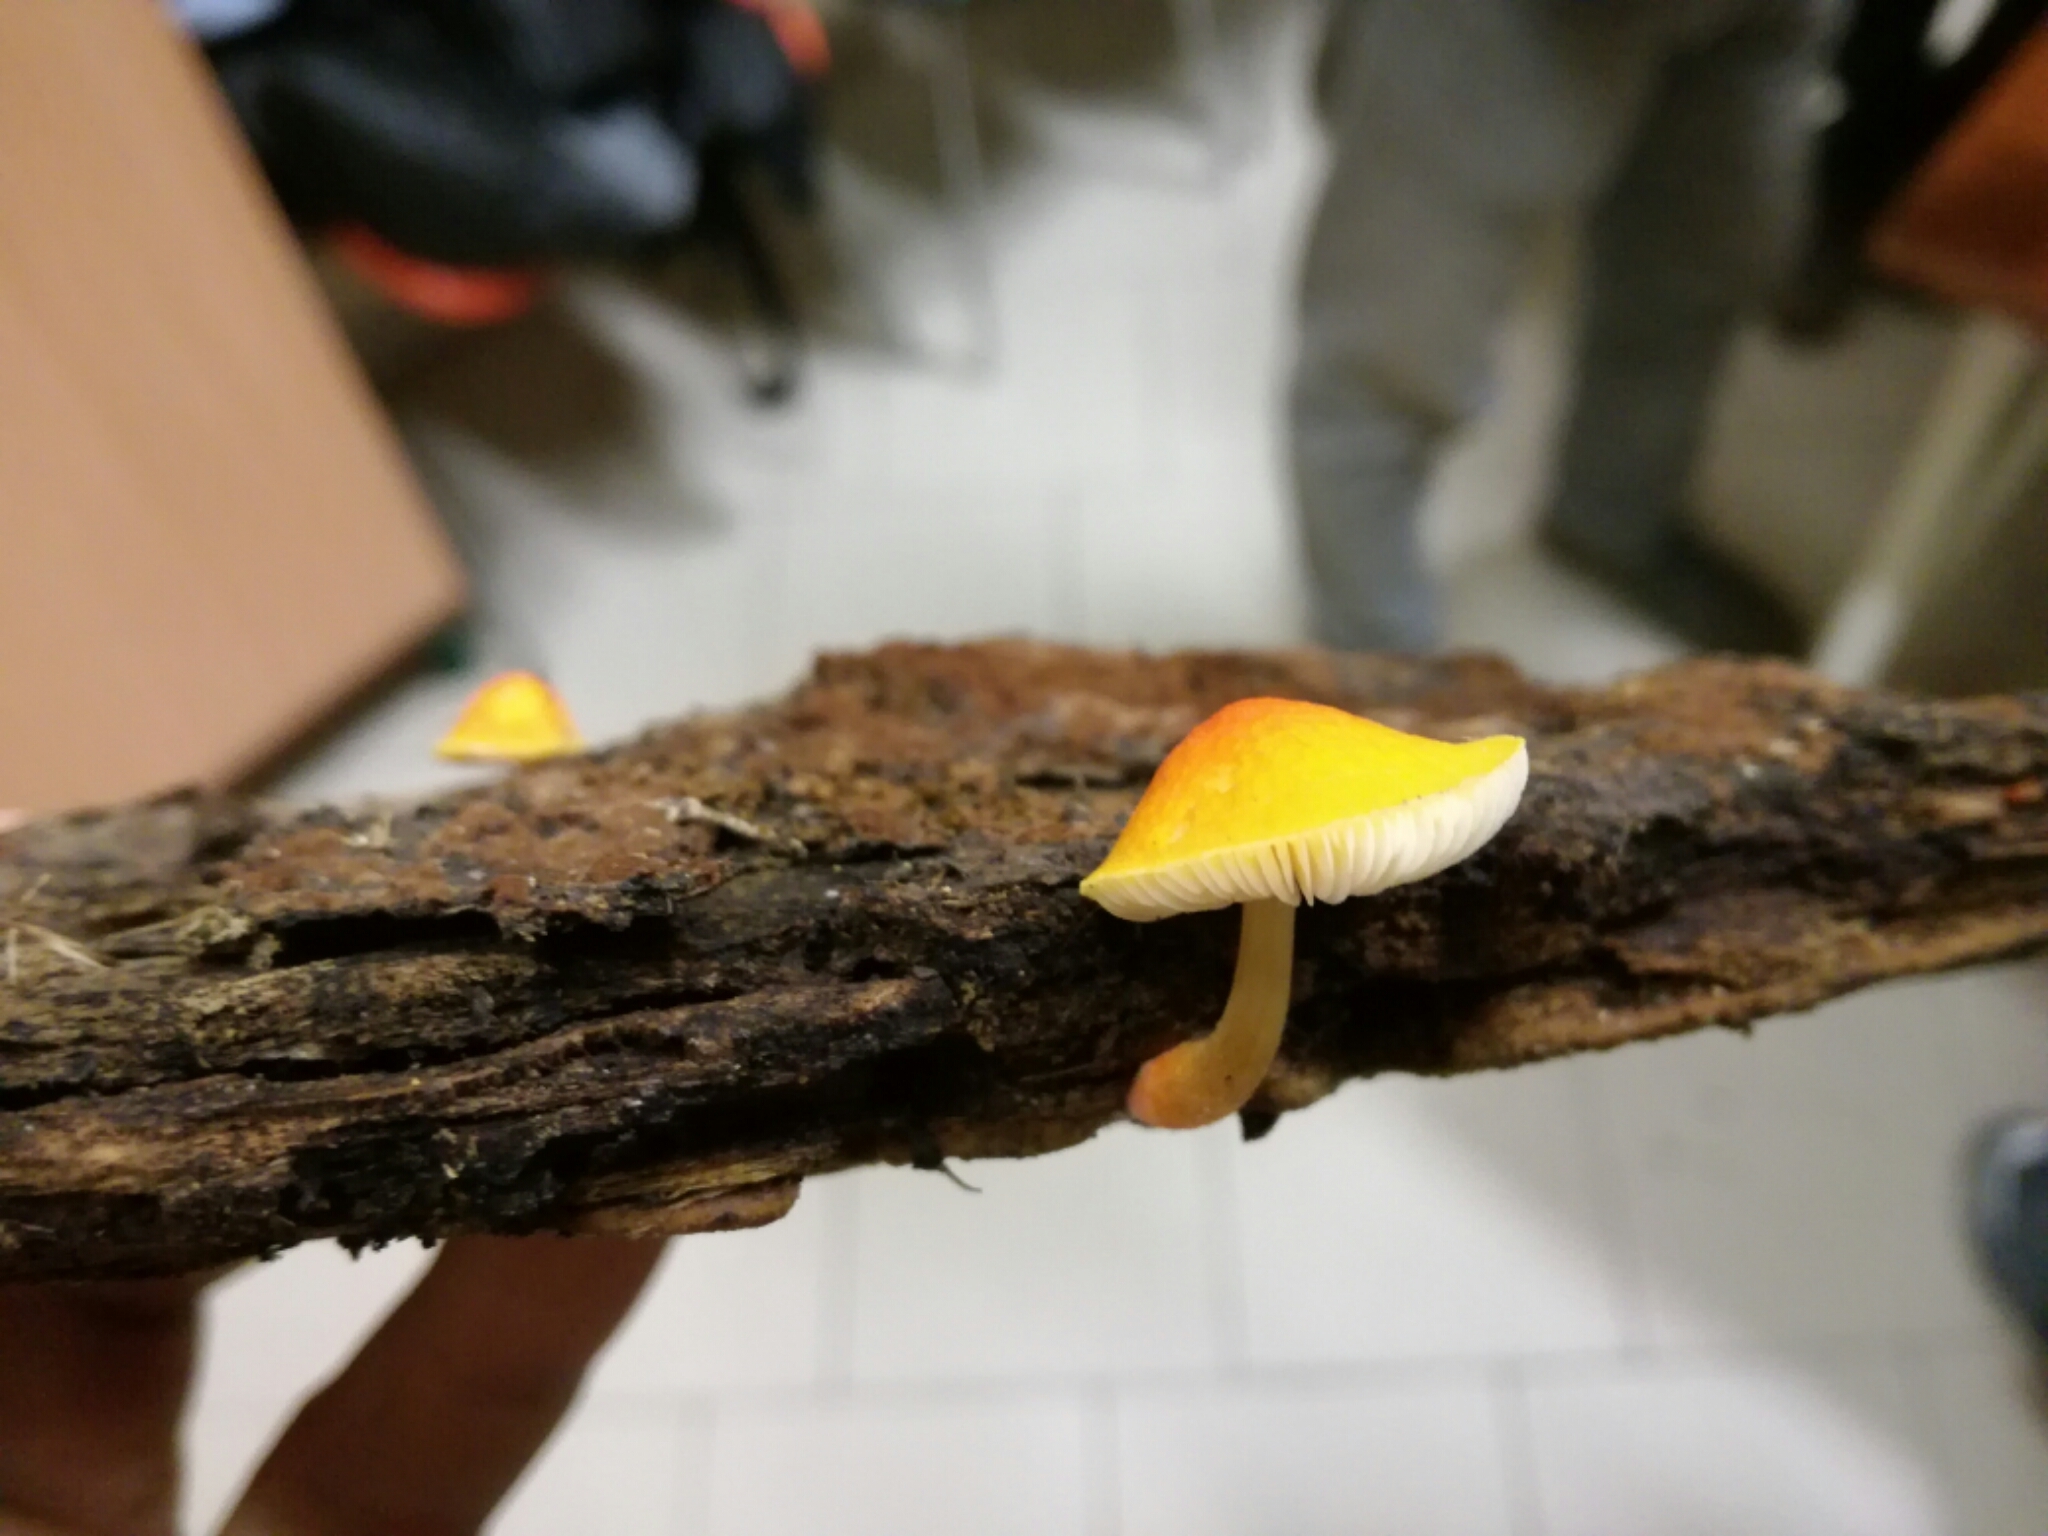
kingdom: Fungi
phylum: Basidiomycota
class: Agaricomycetes
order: Agaricales
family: Pluteaceae
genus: Pluteus
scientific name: Pluteus aurantiorugosus
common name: Flame shield
